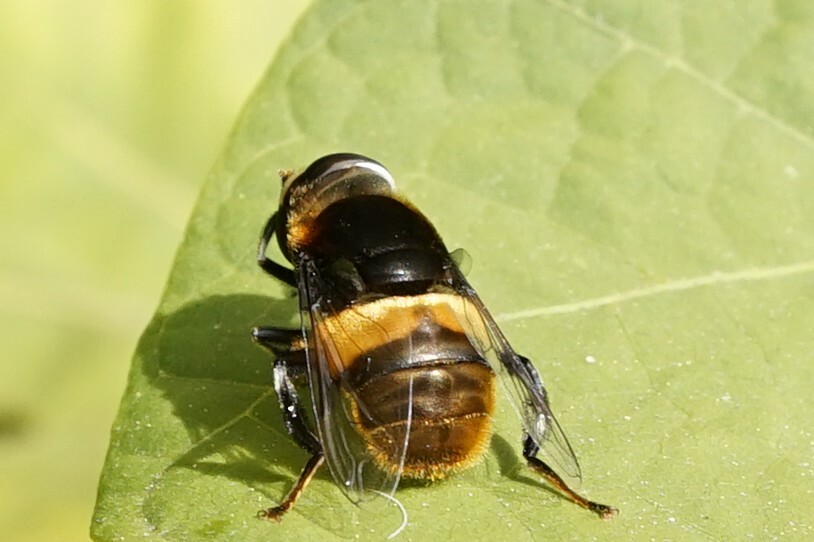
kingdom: Animalia
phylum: Arthropoda
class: Insecta
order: Diptera
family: Syrphidae
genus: Phytomia
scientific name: Phytomia zonata
